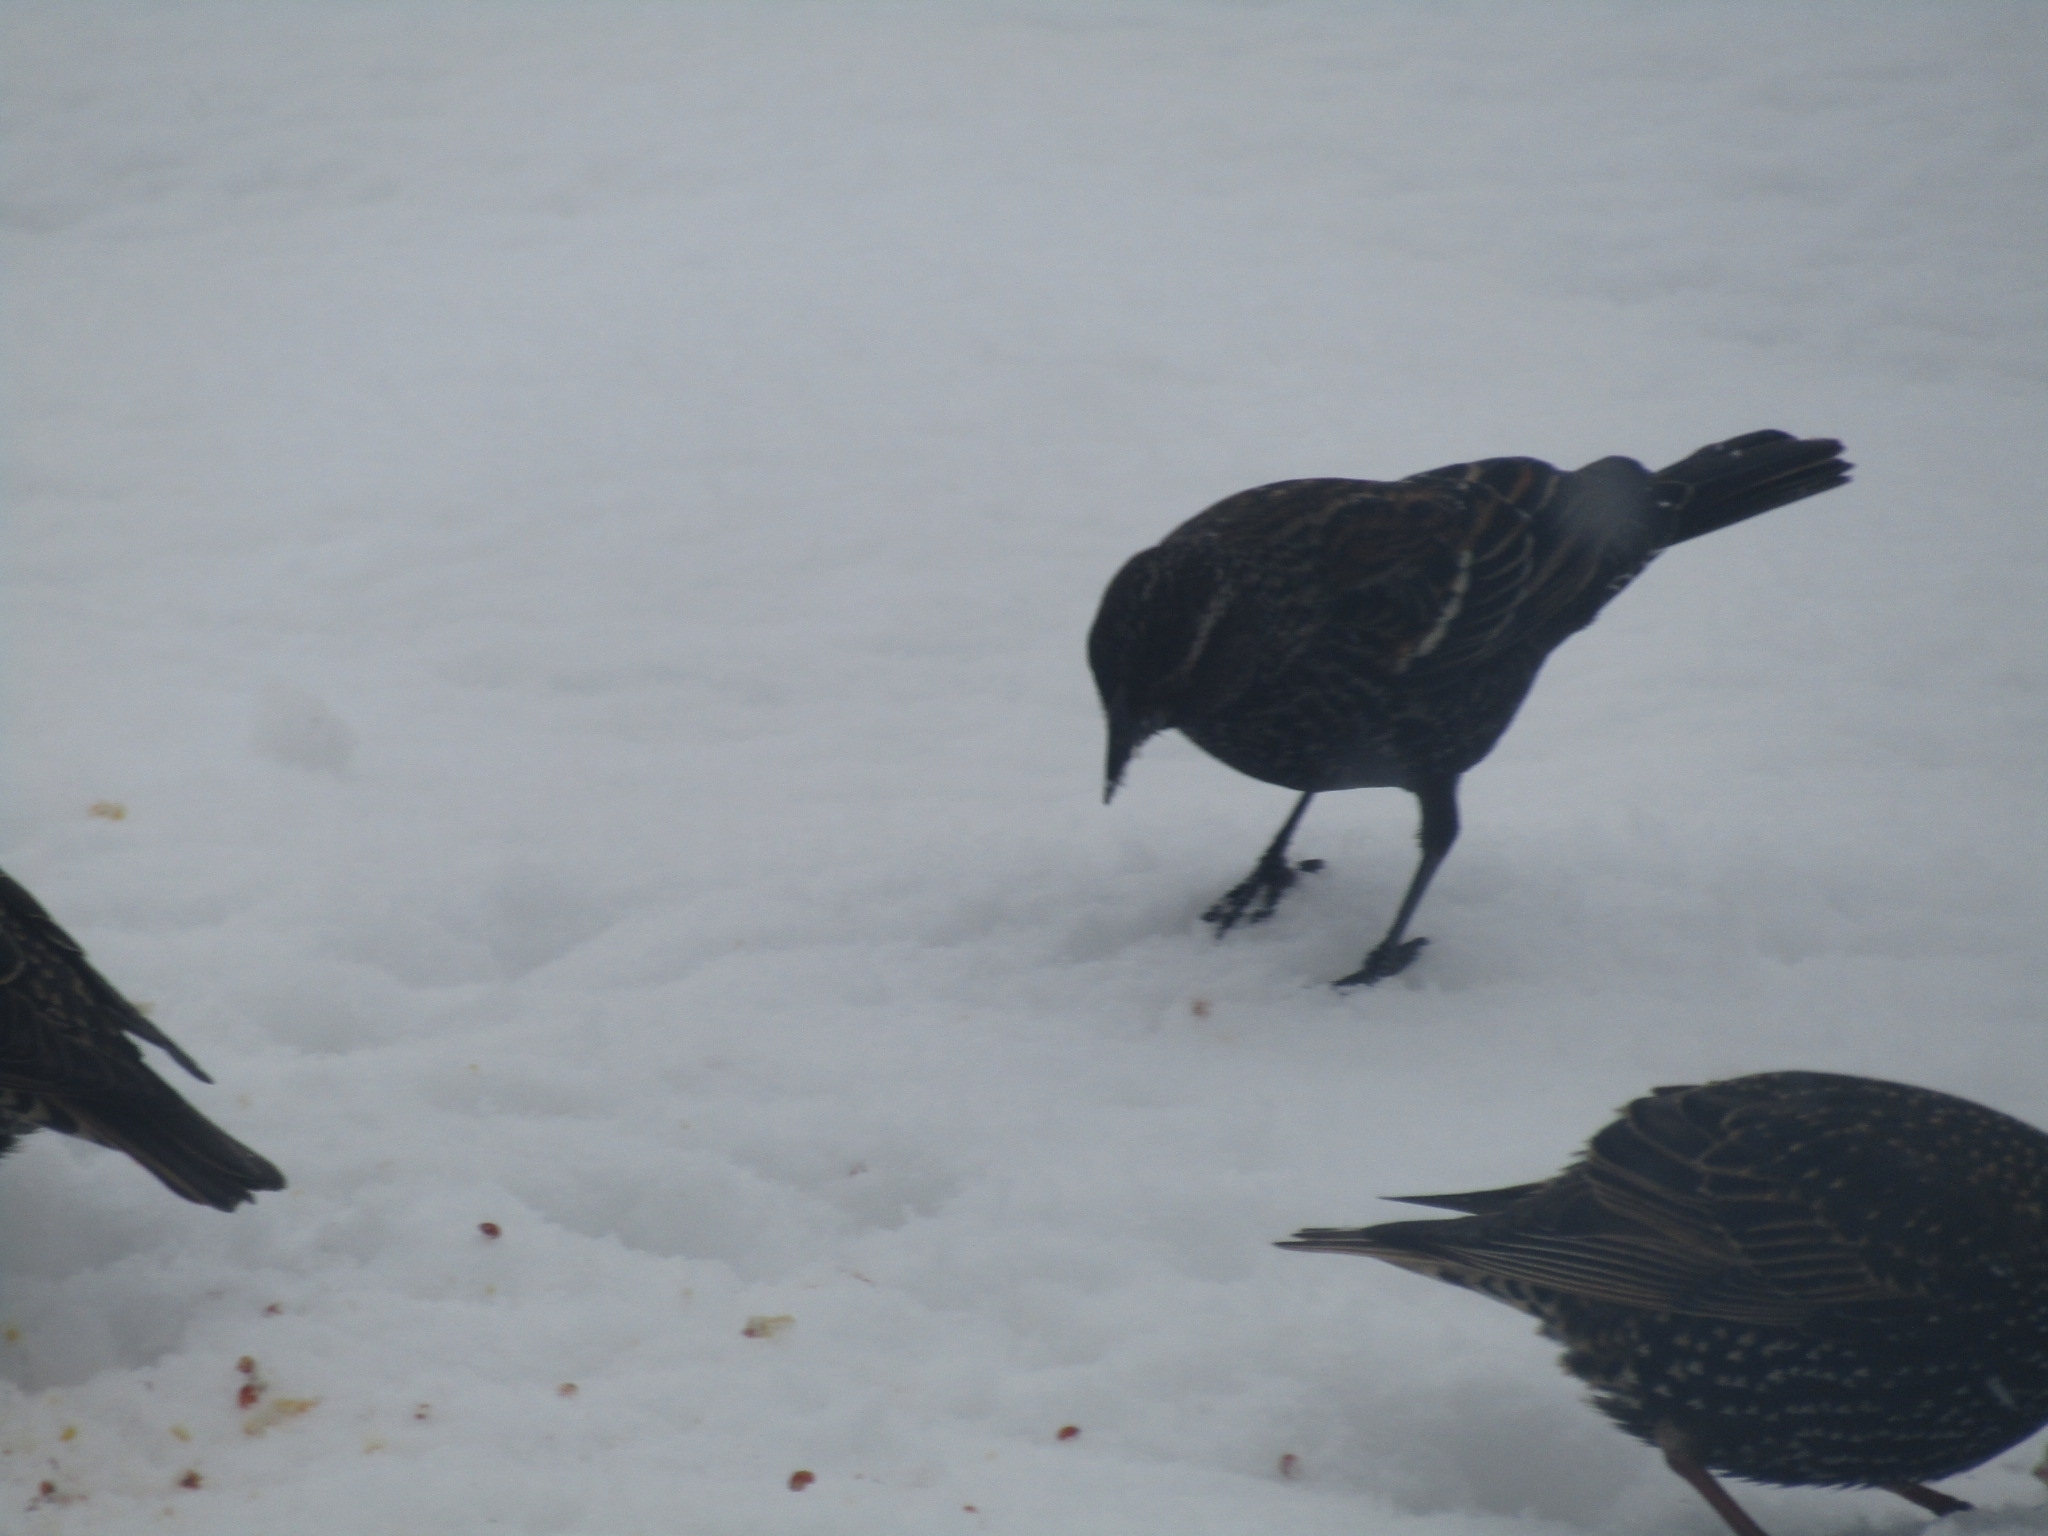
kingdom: Animalia
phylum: Chordata
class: Aves
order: Passeriformes
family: Icteridae
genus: Agelaius
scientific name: Agelaius phoeniceus
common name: Red-winged blackbird
